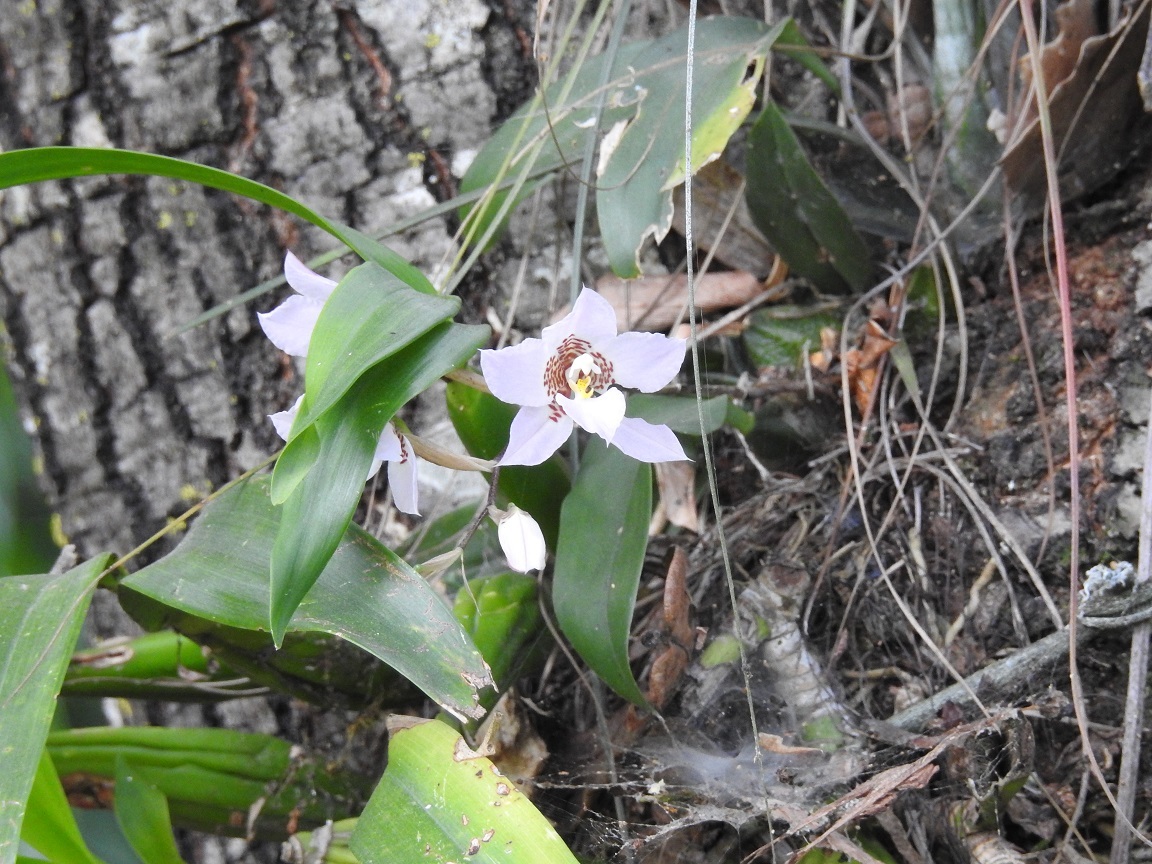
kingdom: Plantae
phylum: Tracheophyta
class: Liliopsida
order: Asparagales
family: Orchidaceae
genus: Rhynchostele
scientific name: Rhynchostele cervantesii
